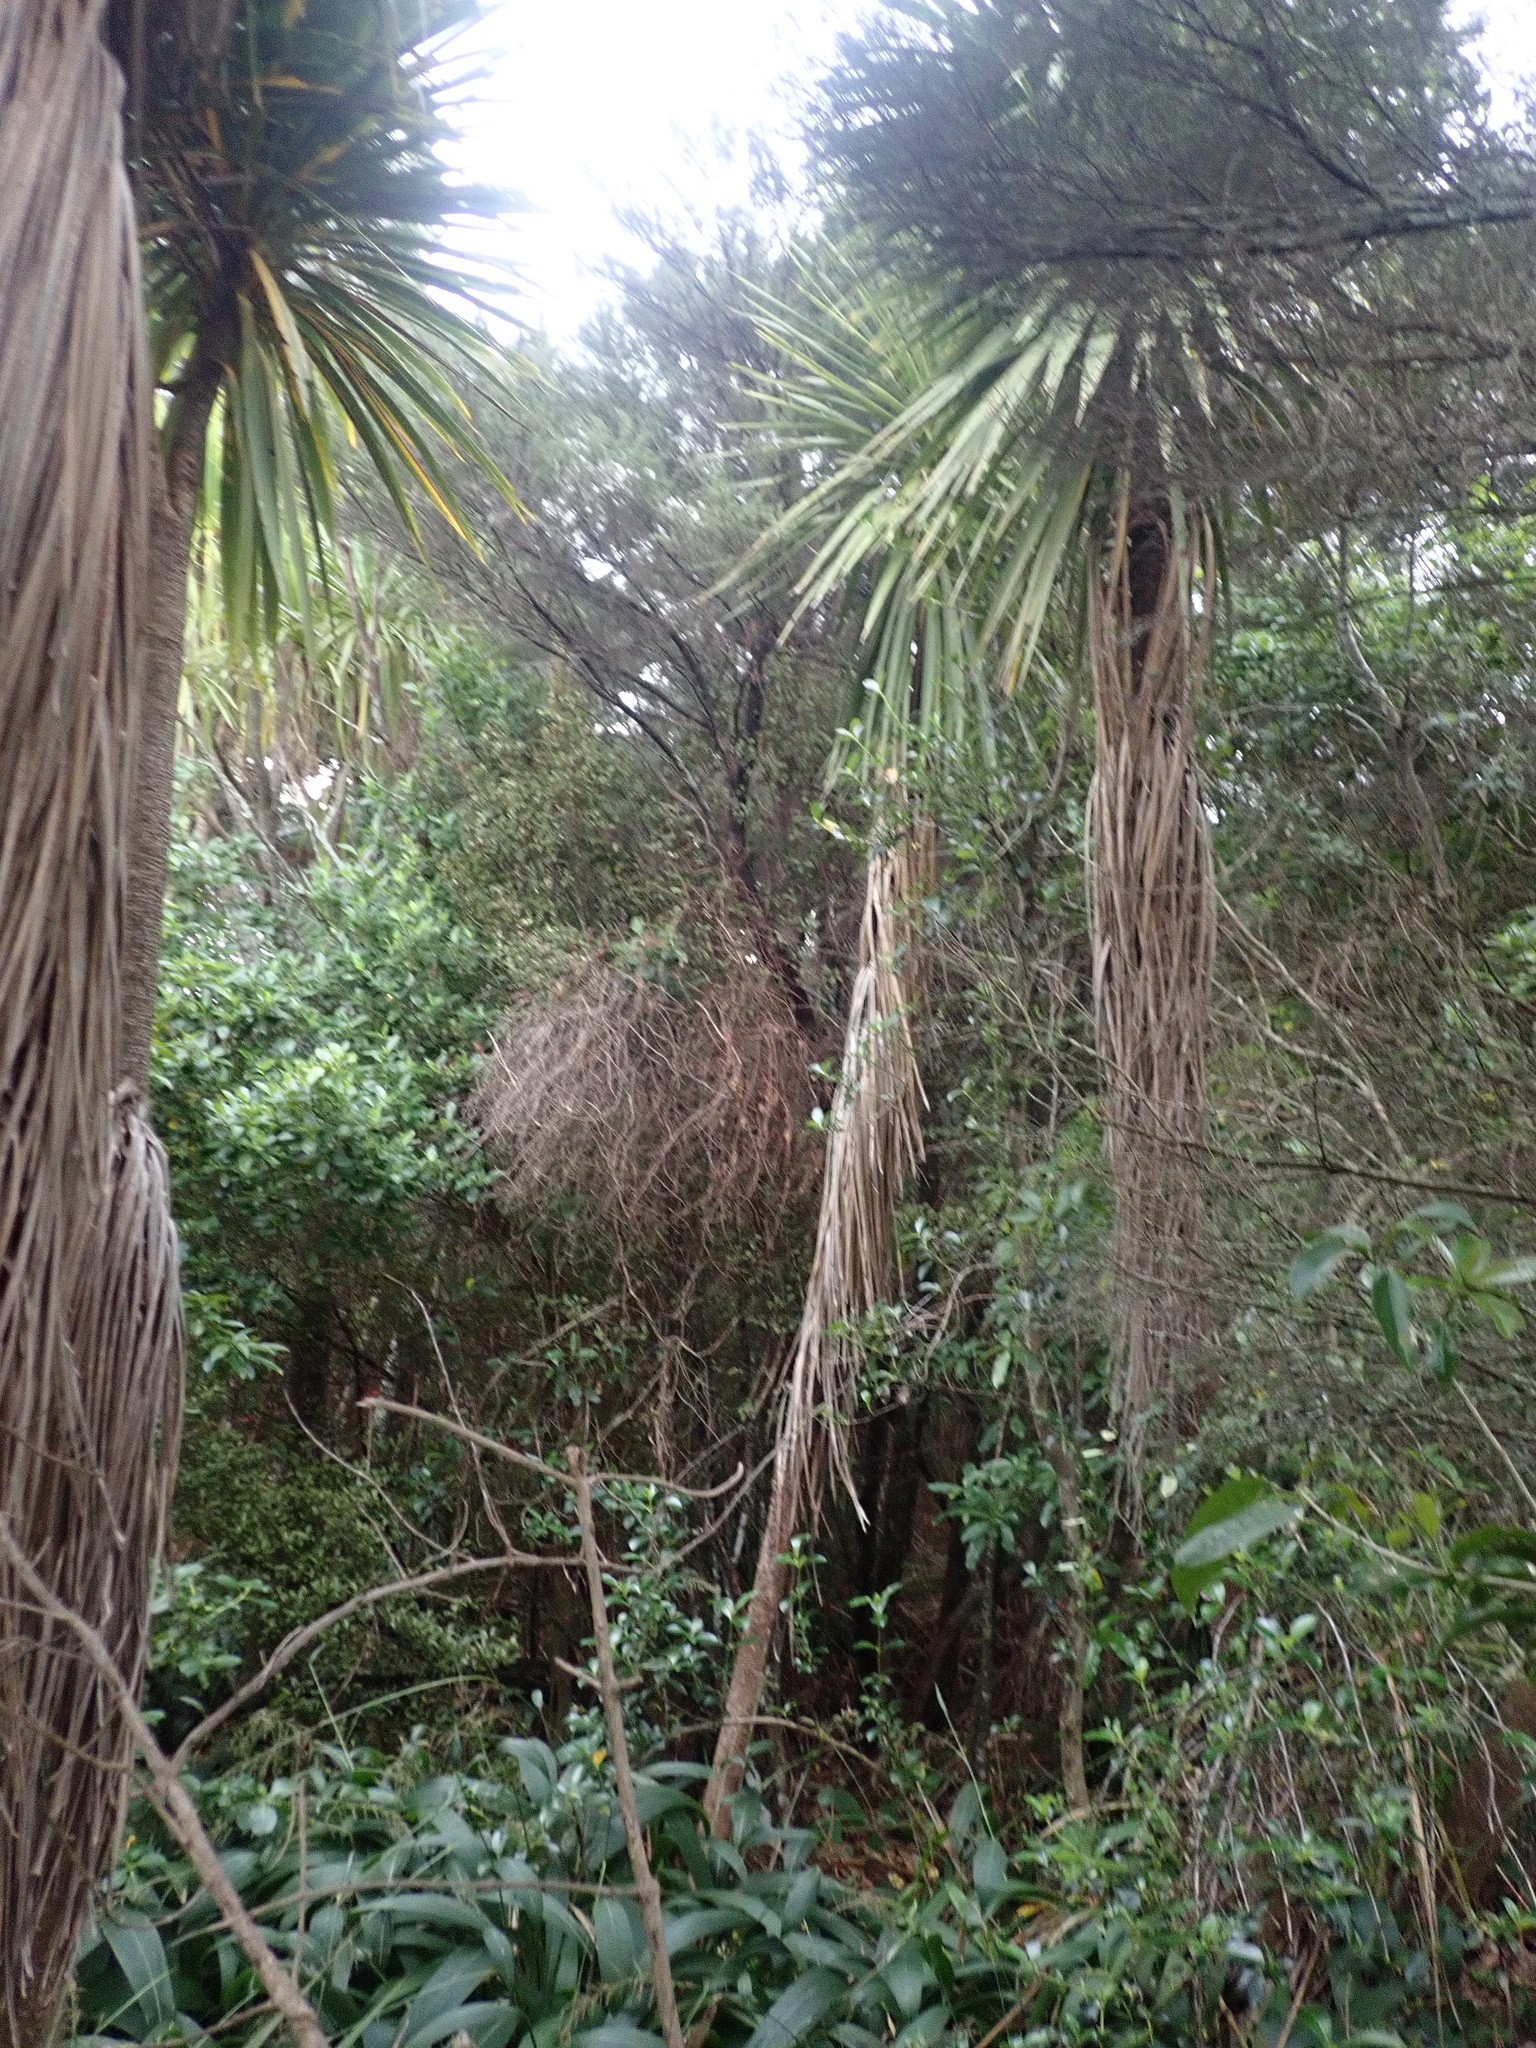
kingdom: Plantae
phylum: Tracheophyta
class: Liliopsida
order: Poales
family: Poaceae
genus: Setaria
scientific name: Setaria palmifolia
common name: Broadleaved bristlegrass
